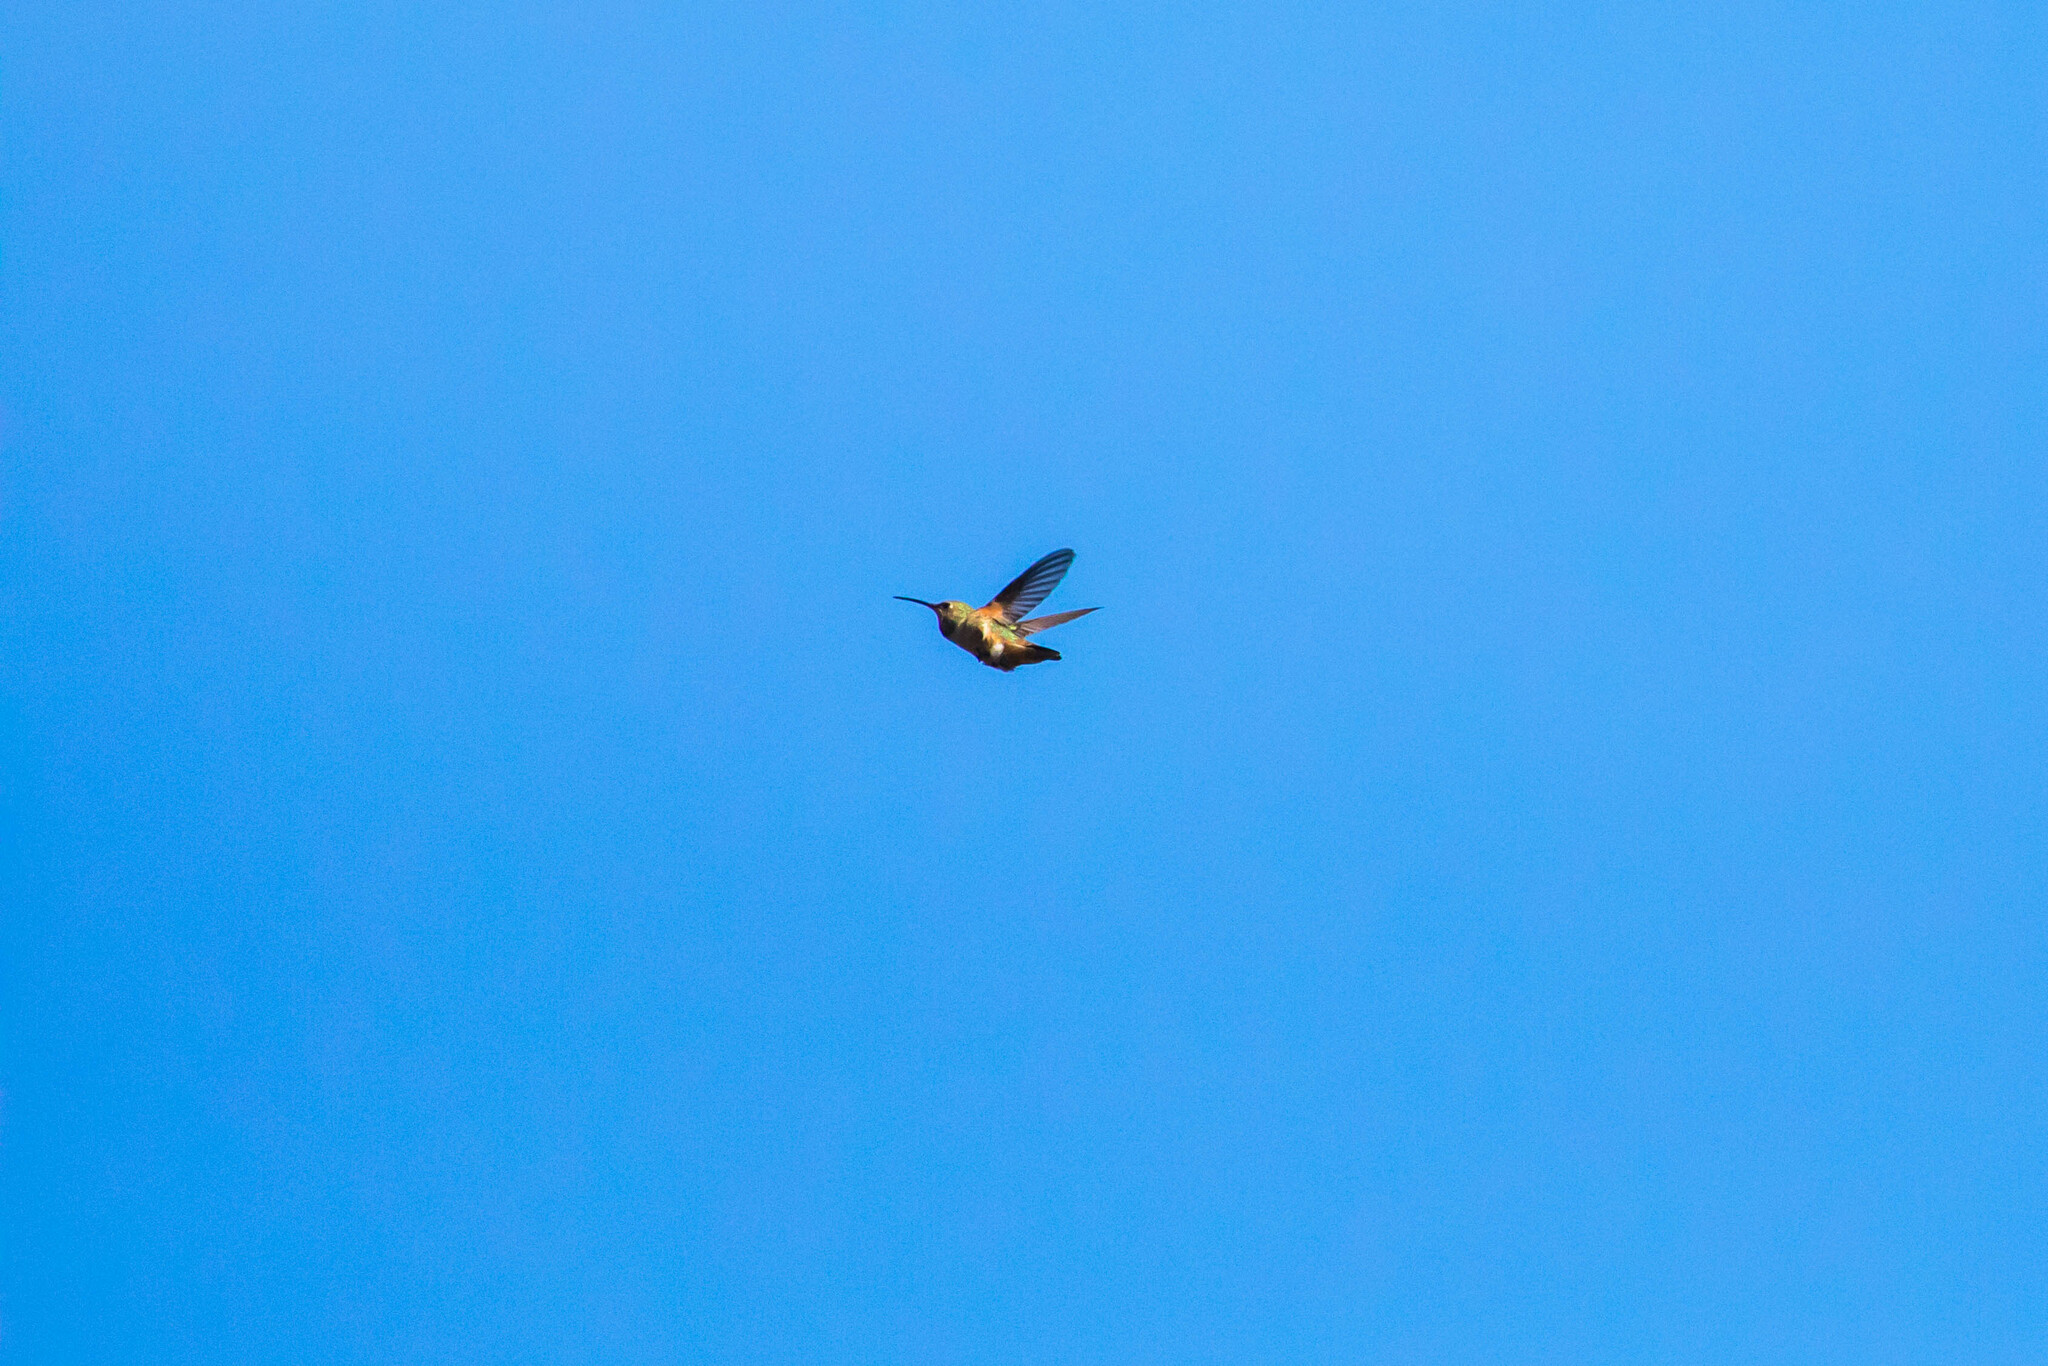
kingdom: Animalia
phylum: Chordata
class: Aves
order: Apodiformes
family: Trochilidae
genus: Selasphorus
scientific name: Selasphorus sasin
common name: Allen's hummingbird
